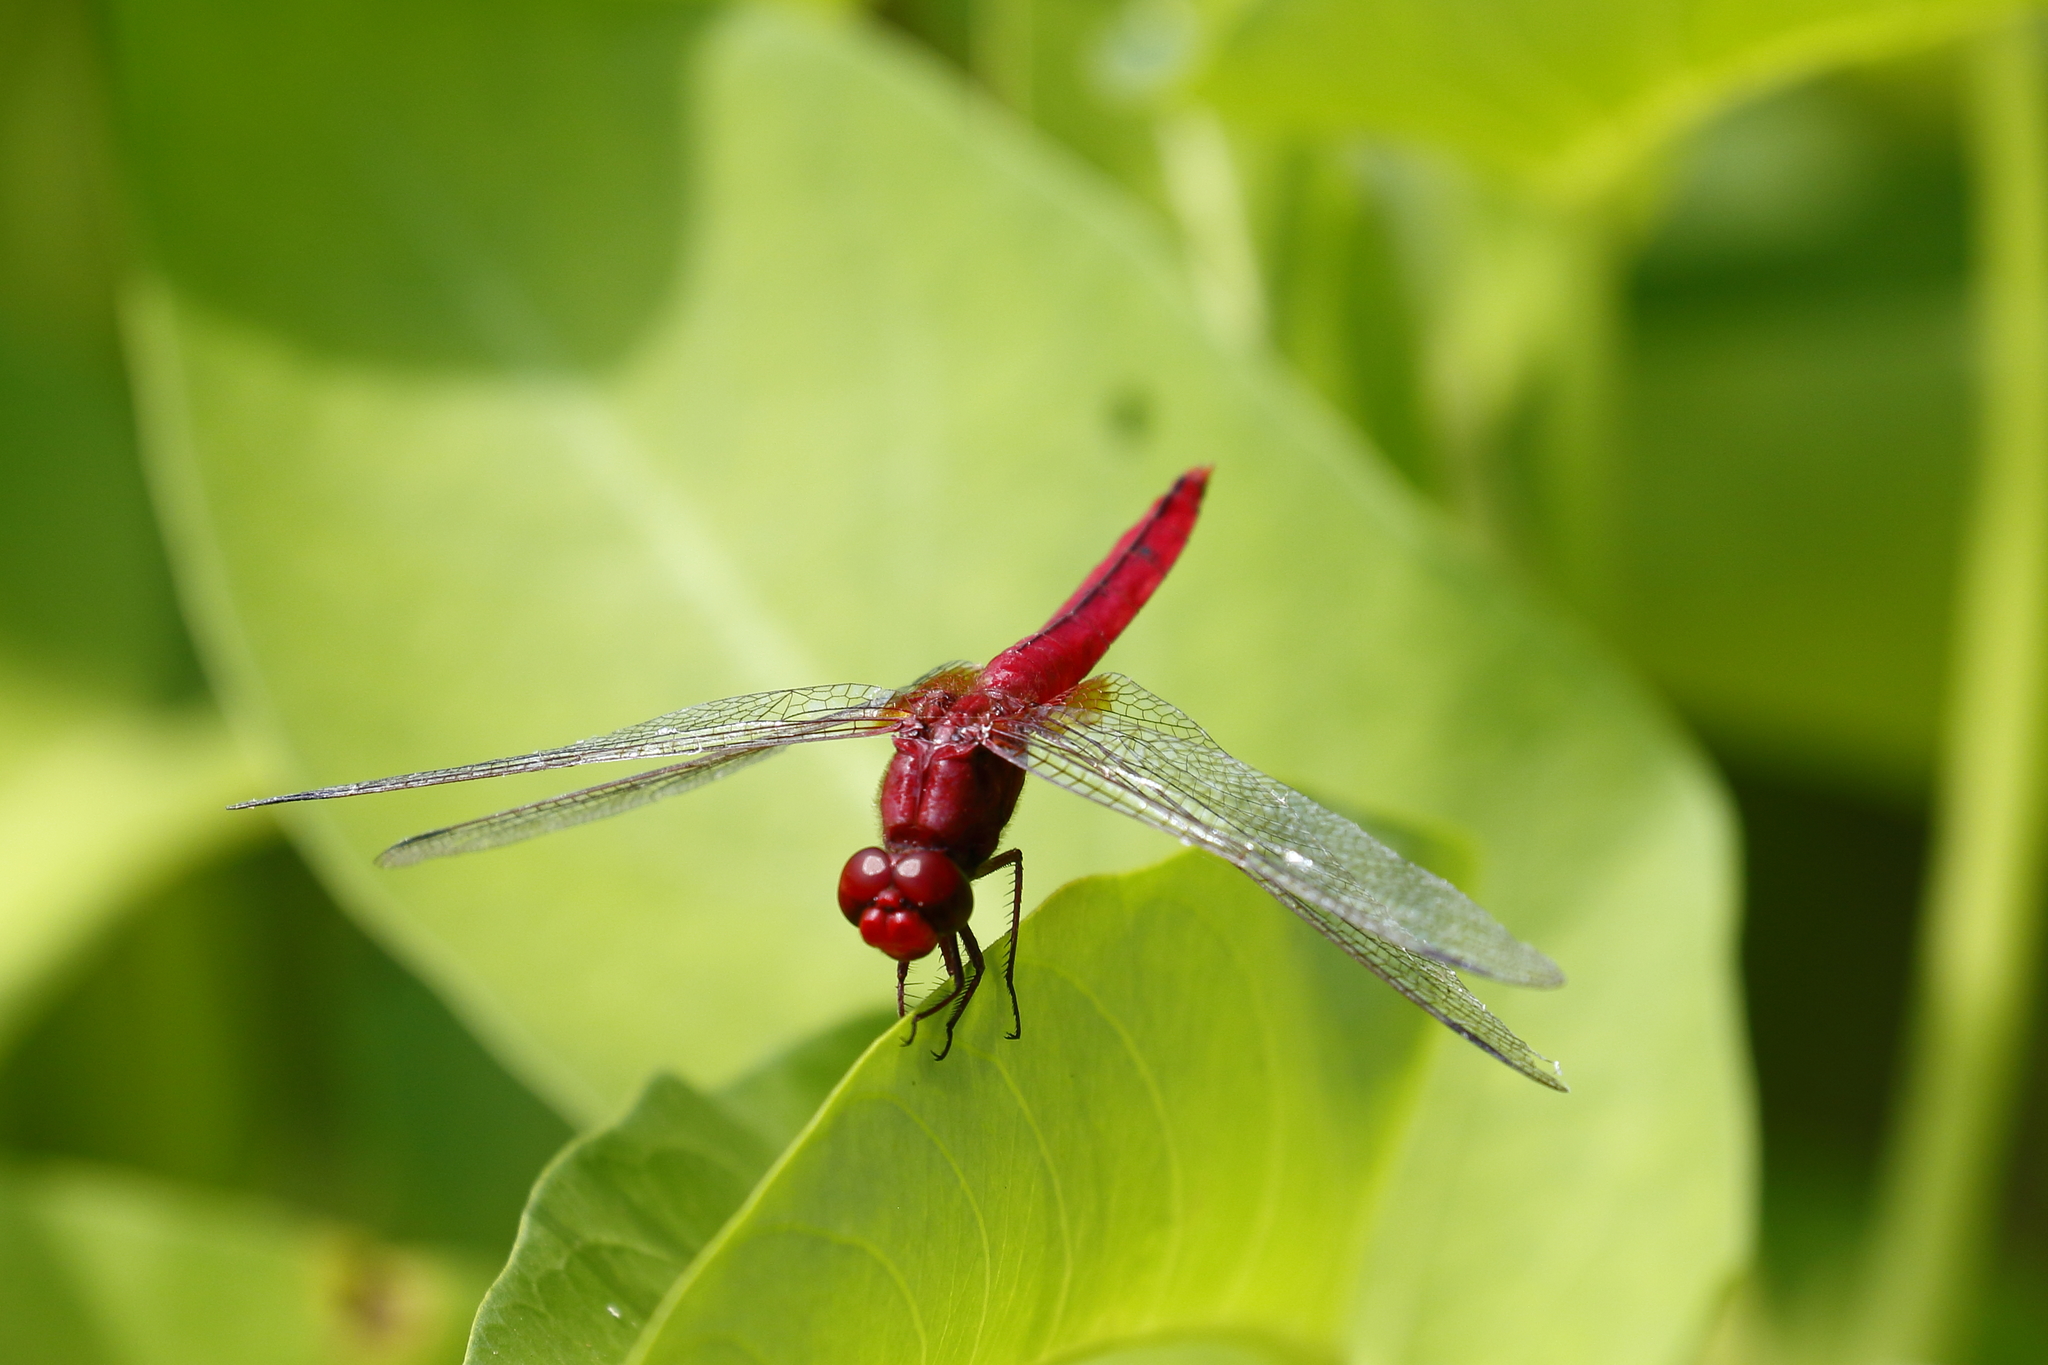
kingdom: Animalia
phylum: Arthropoda
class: Insecta
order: Odonata
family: Libellulidae
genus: Crocothemis
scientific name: Crocothemis servilia
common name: Scarlet skimmer
